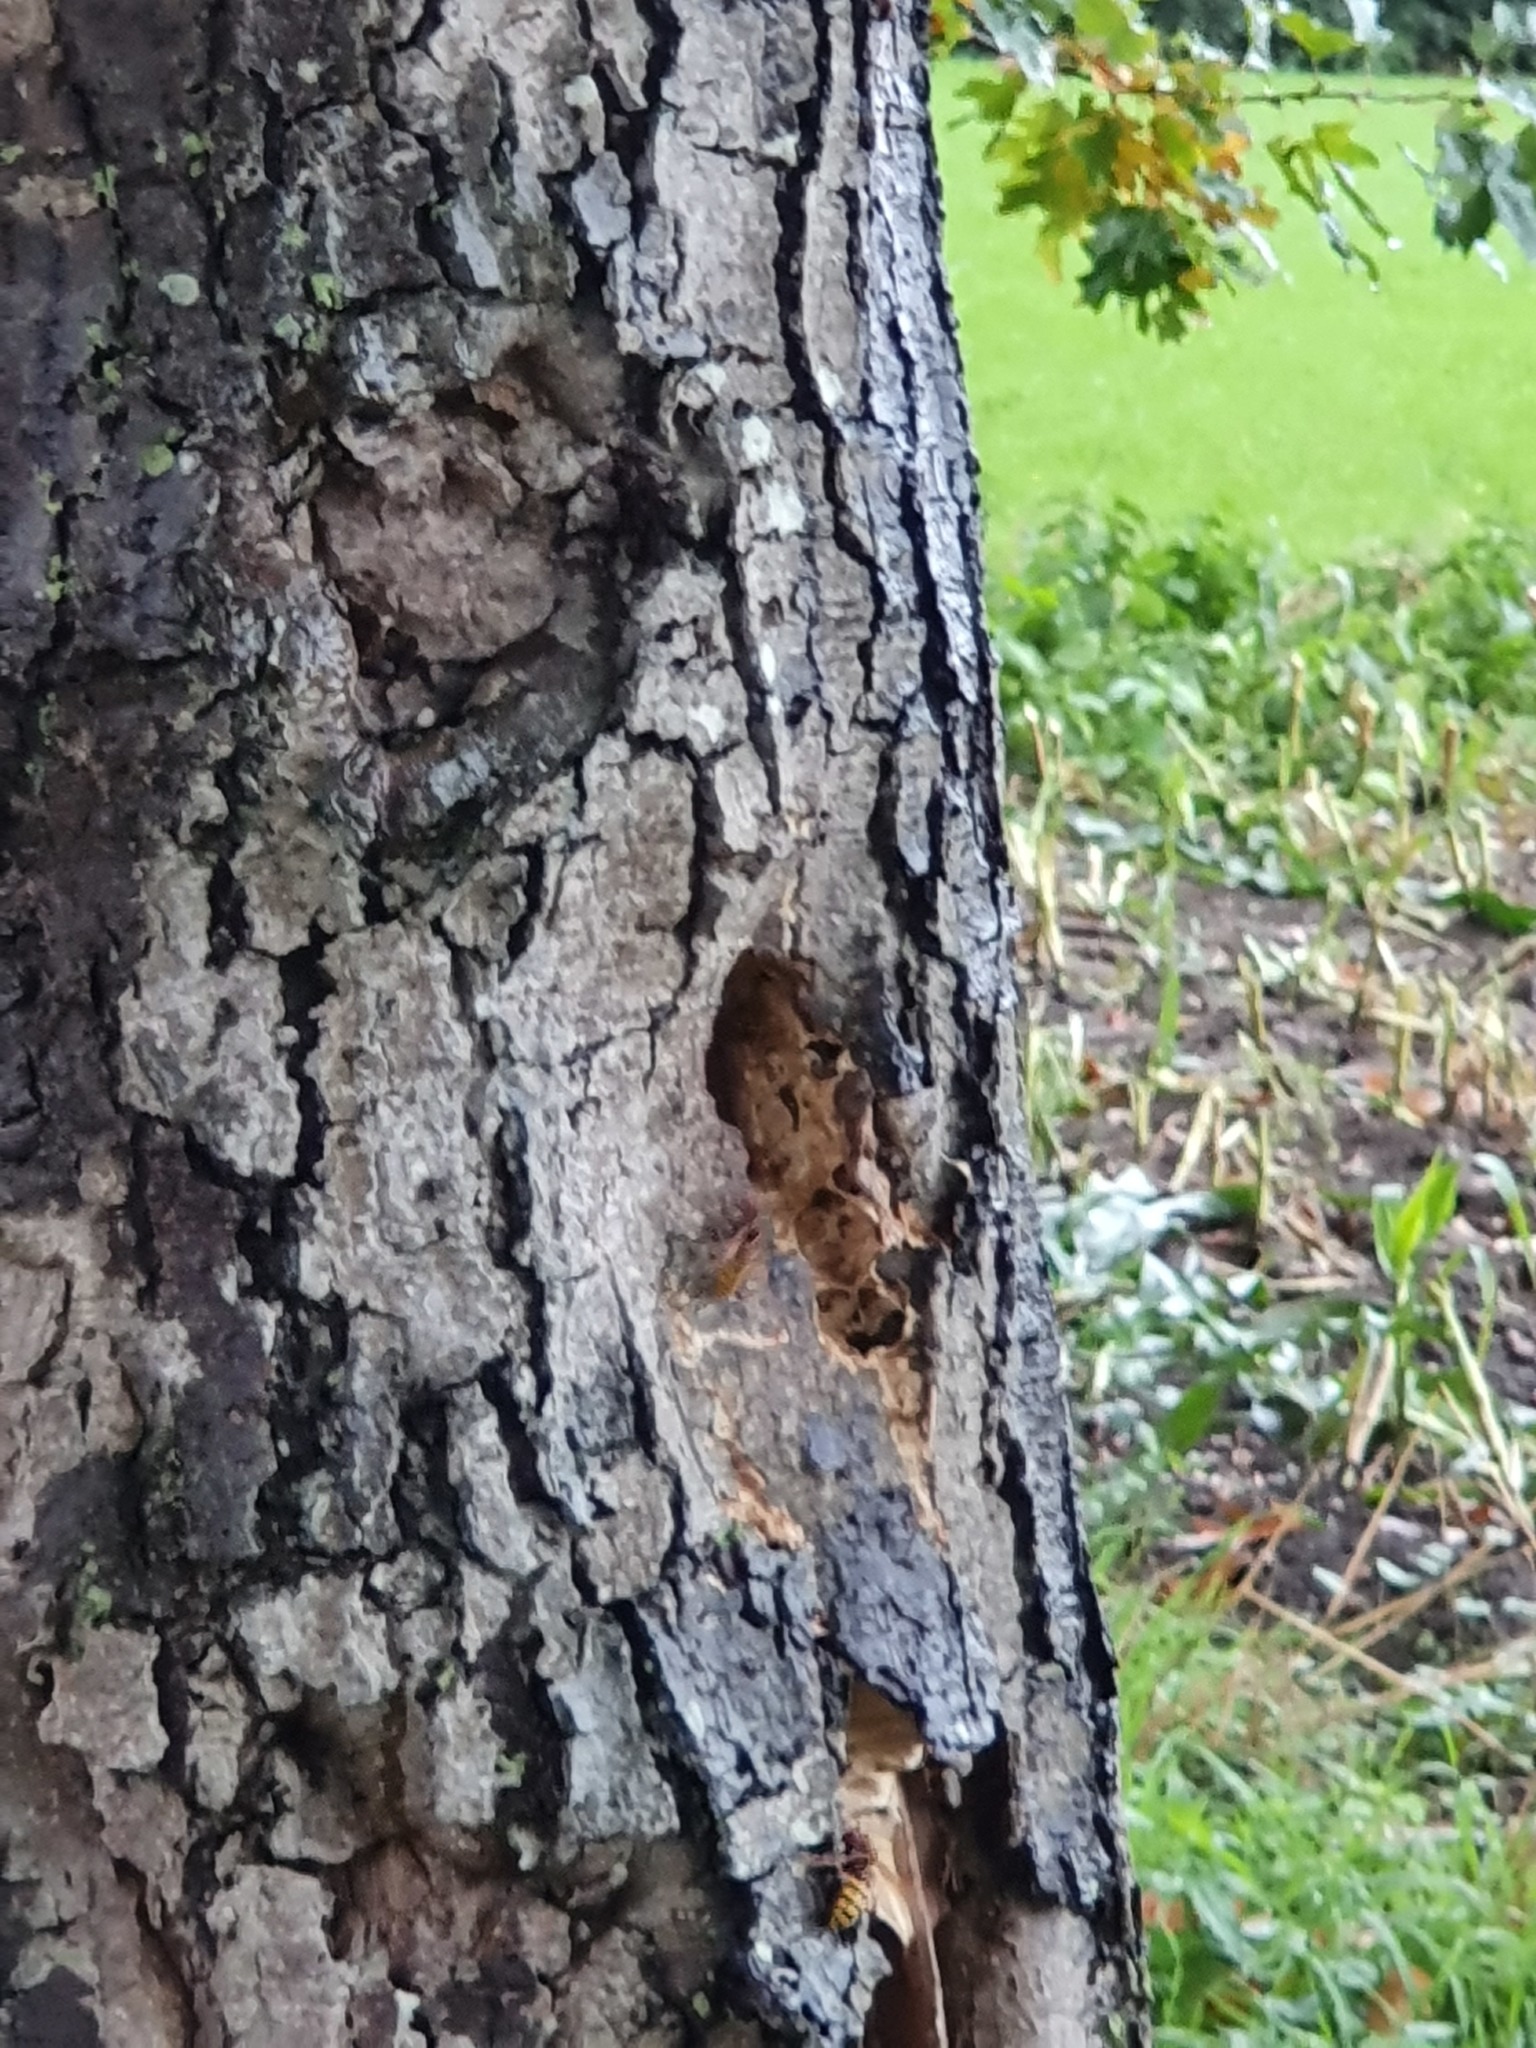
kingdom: Animalia
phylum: Arthropoda
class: Insecta
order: Hymenoptera
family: Vespidae
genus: Vespa
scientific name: Vespa crabro
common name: Hornet
